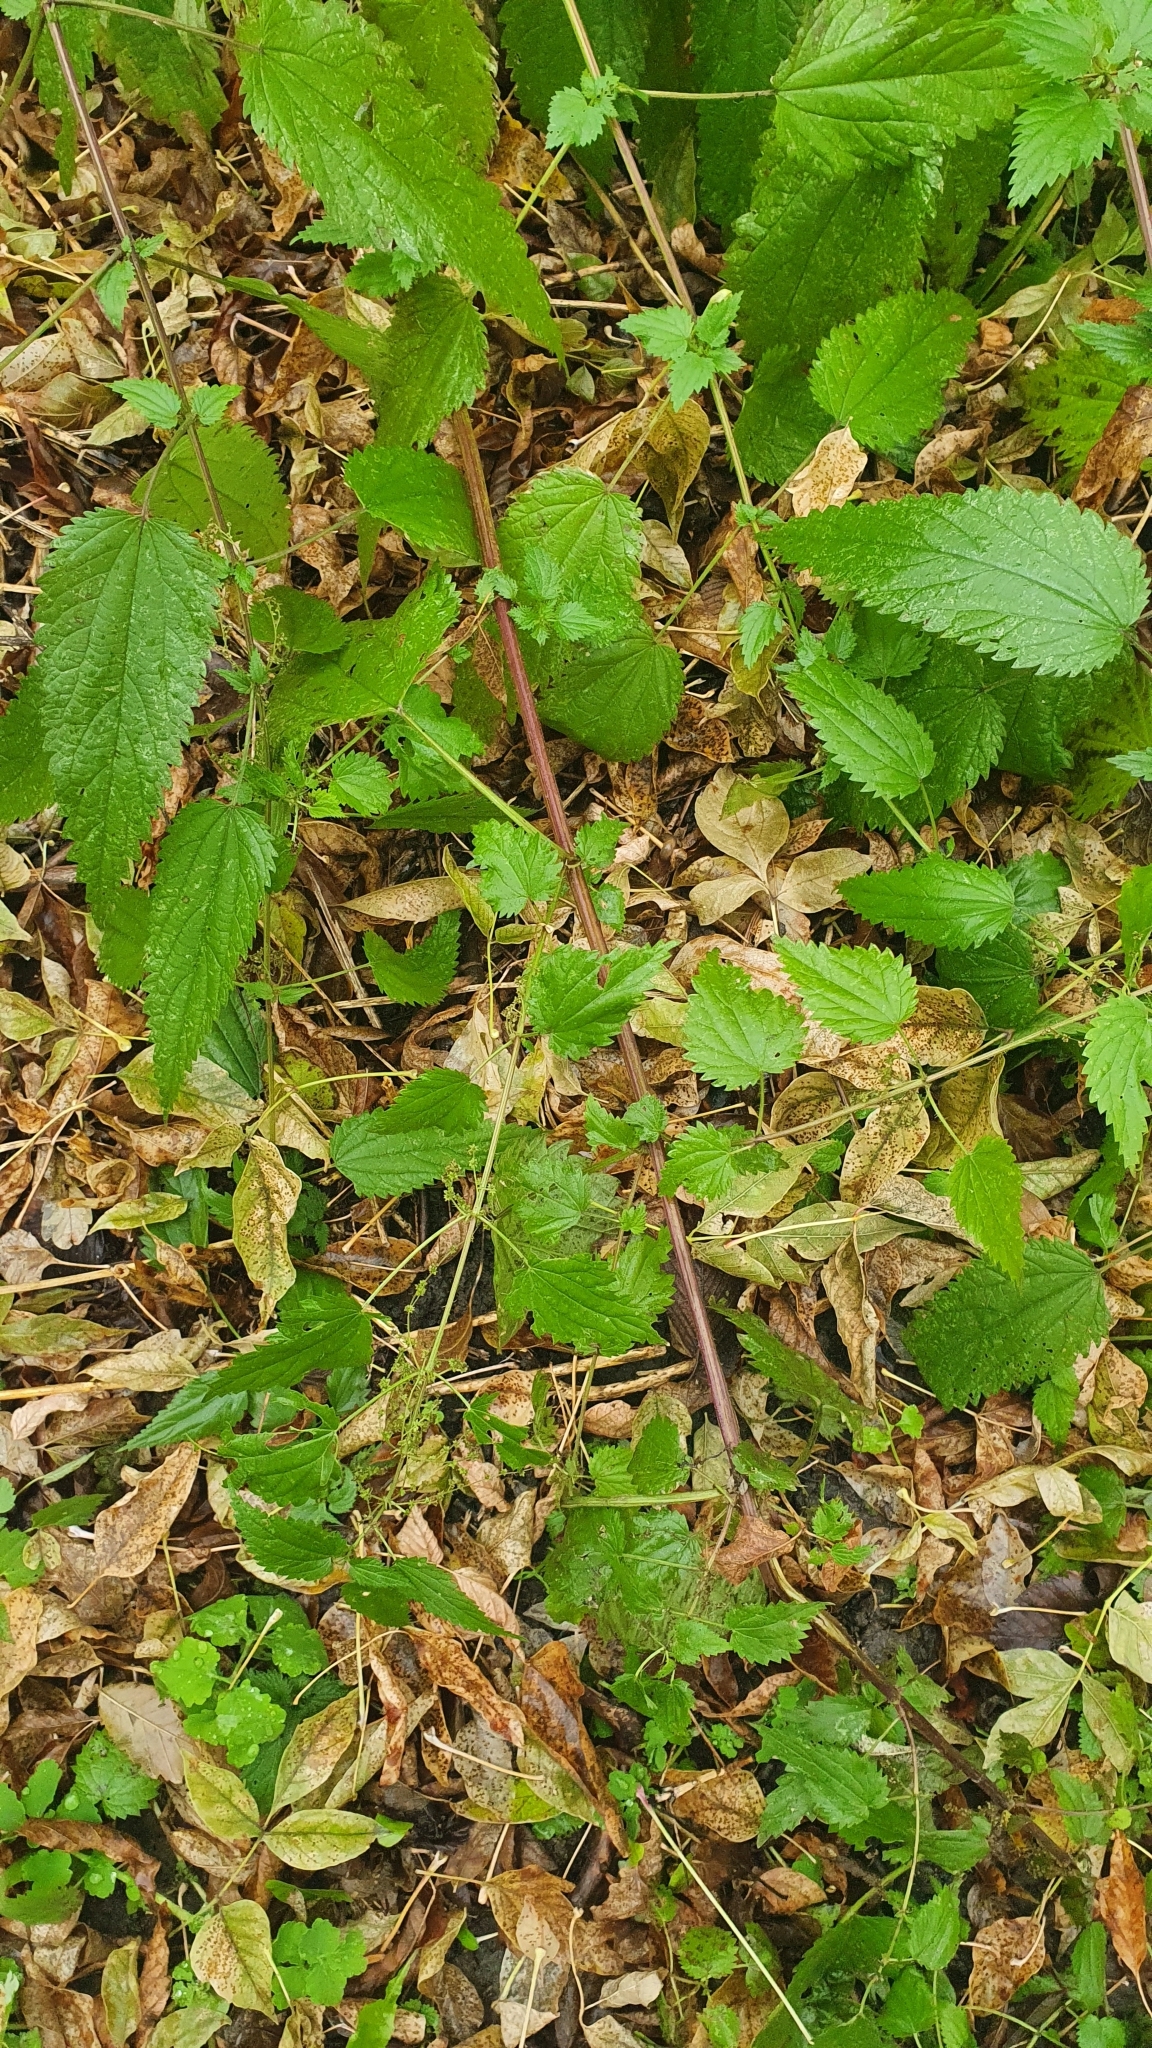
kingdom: Plantae
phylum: Tracheophyta
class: Magnoliopsida
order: Rosales
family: Urticaceae
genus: Urtica
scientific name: Urtica dioica
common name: Common nettle
